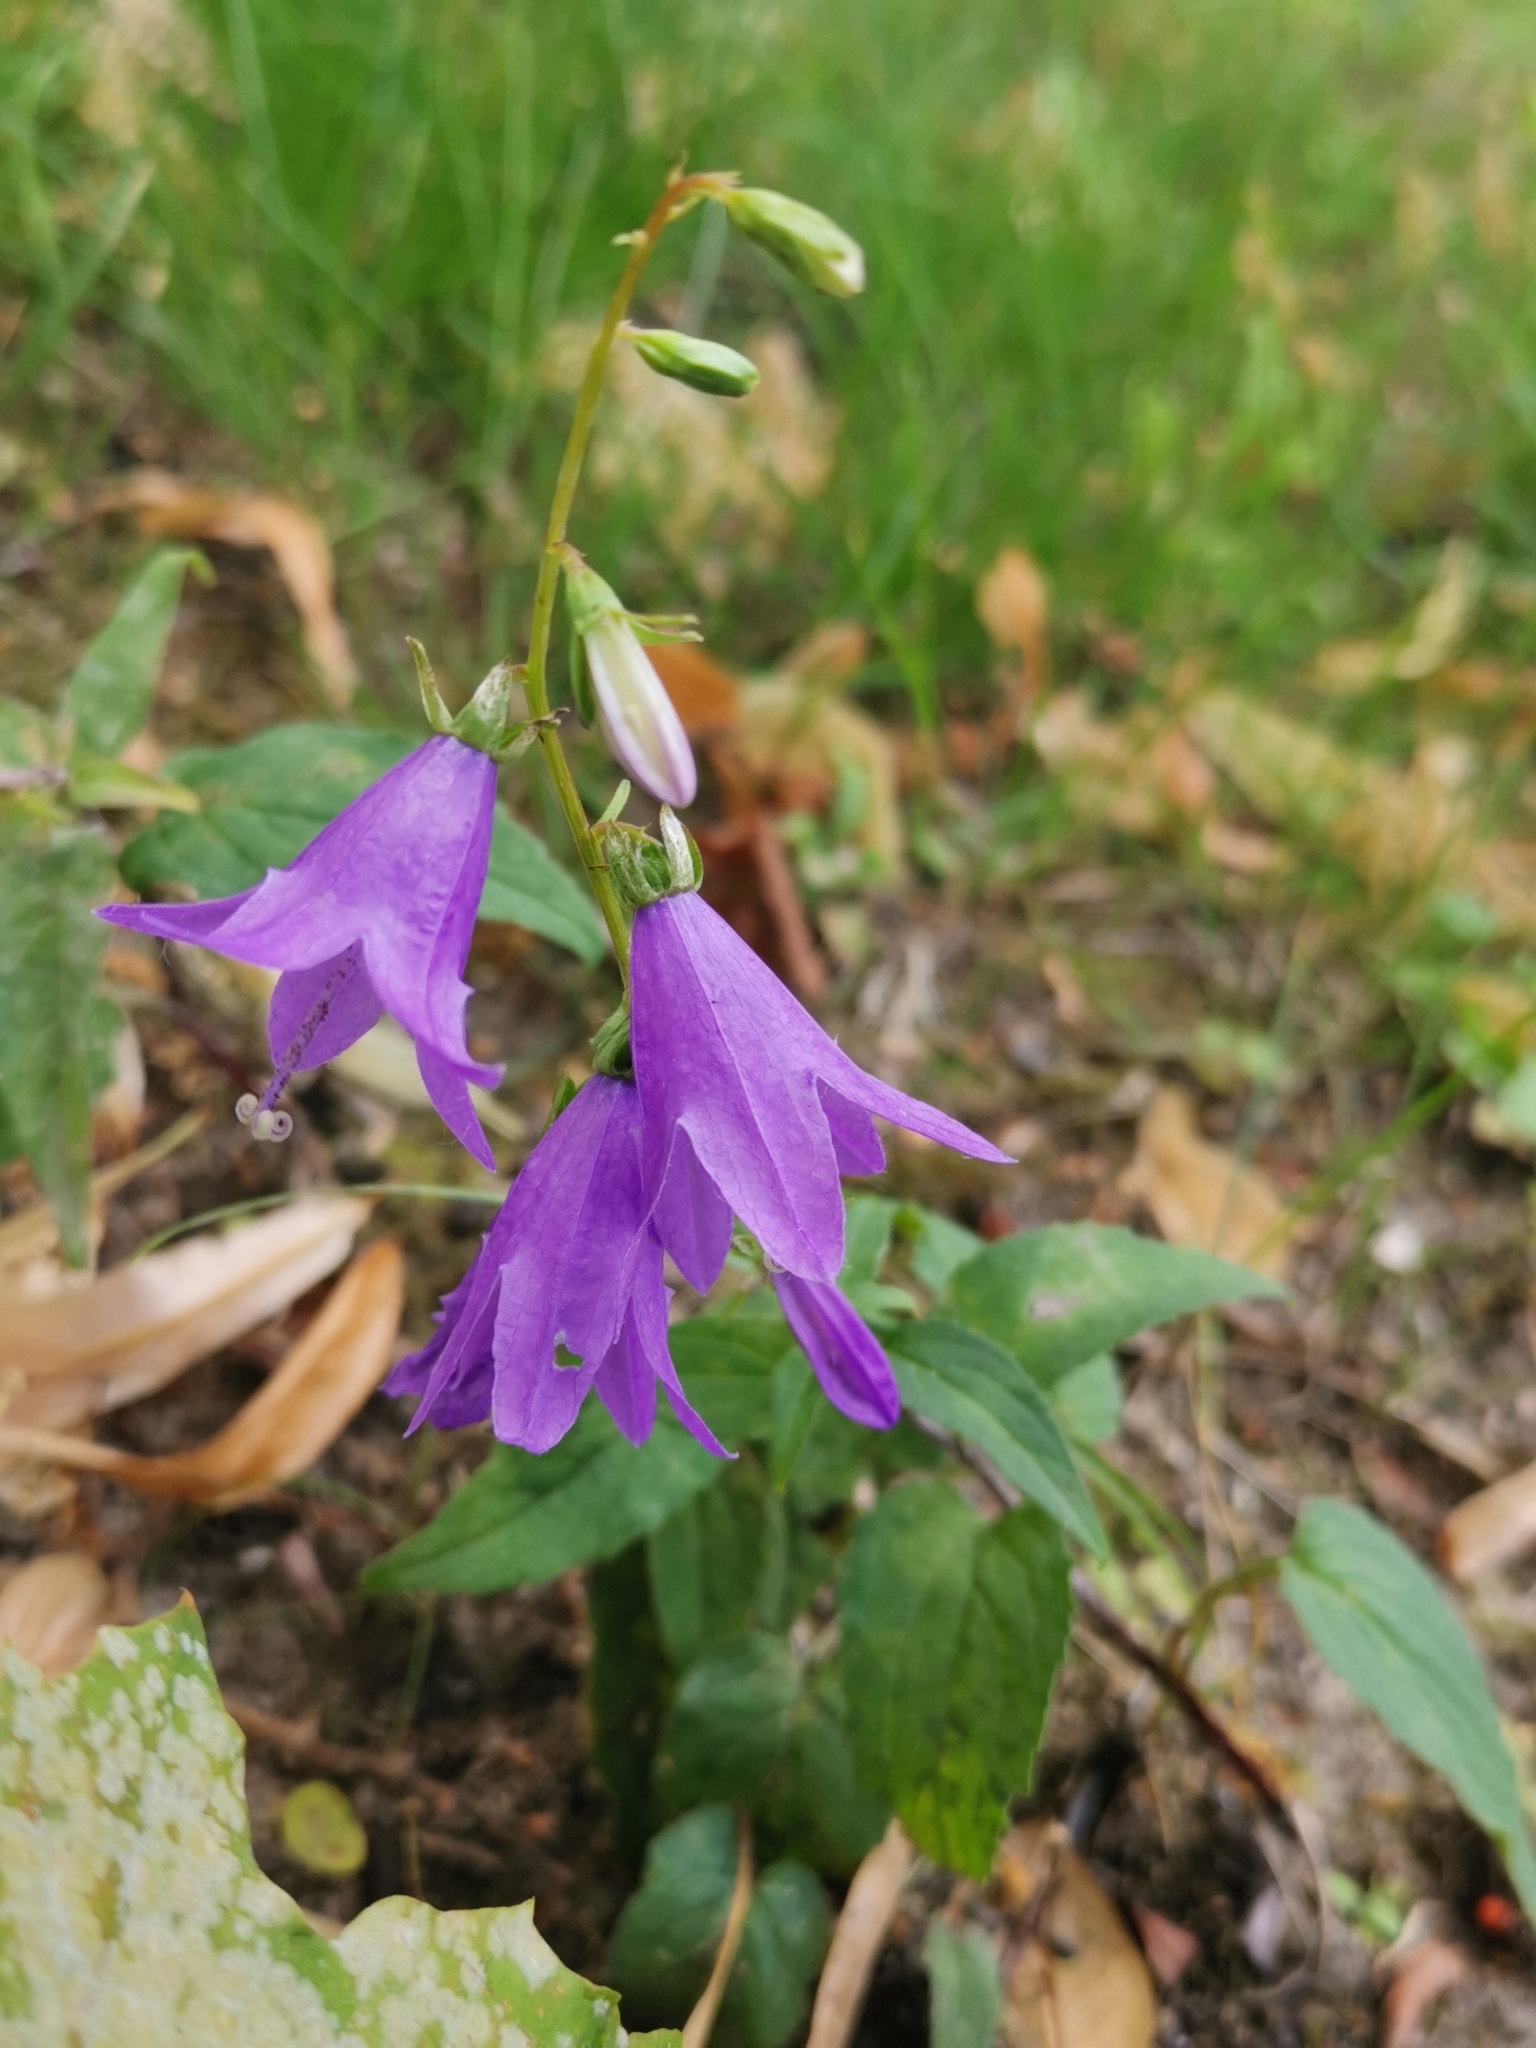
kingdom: Plantae
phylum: Tracheophyta
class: Magnoliopsida
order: Asterales
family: Campanulaceae
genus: Campanula
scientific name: Campanula rapunculoides
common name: Creeping bellflower
